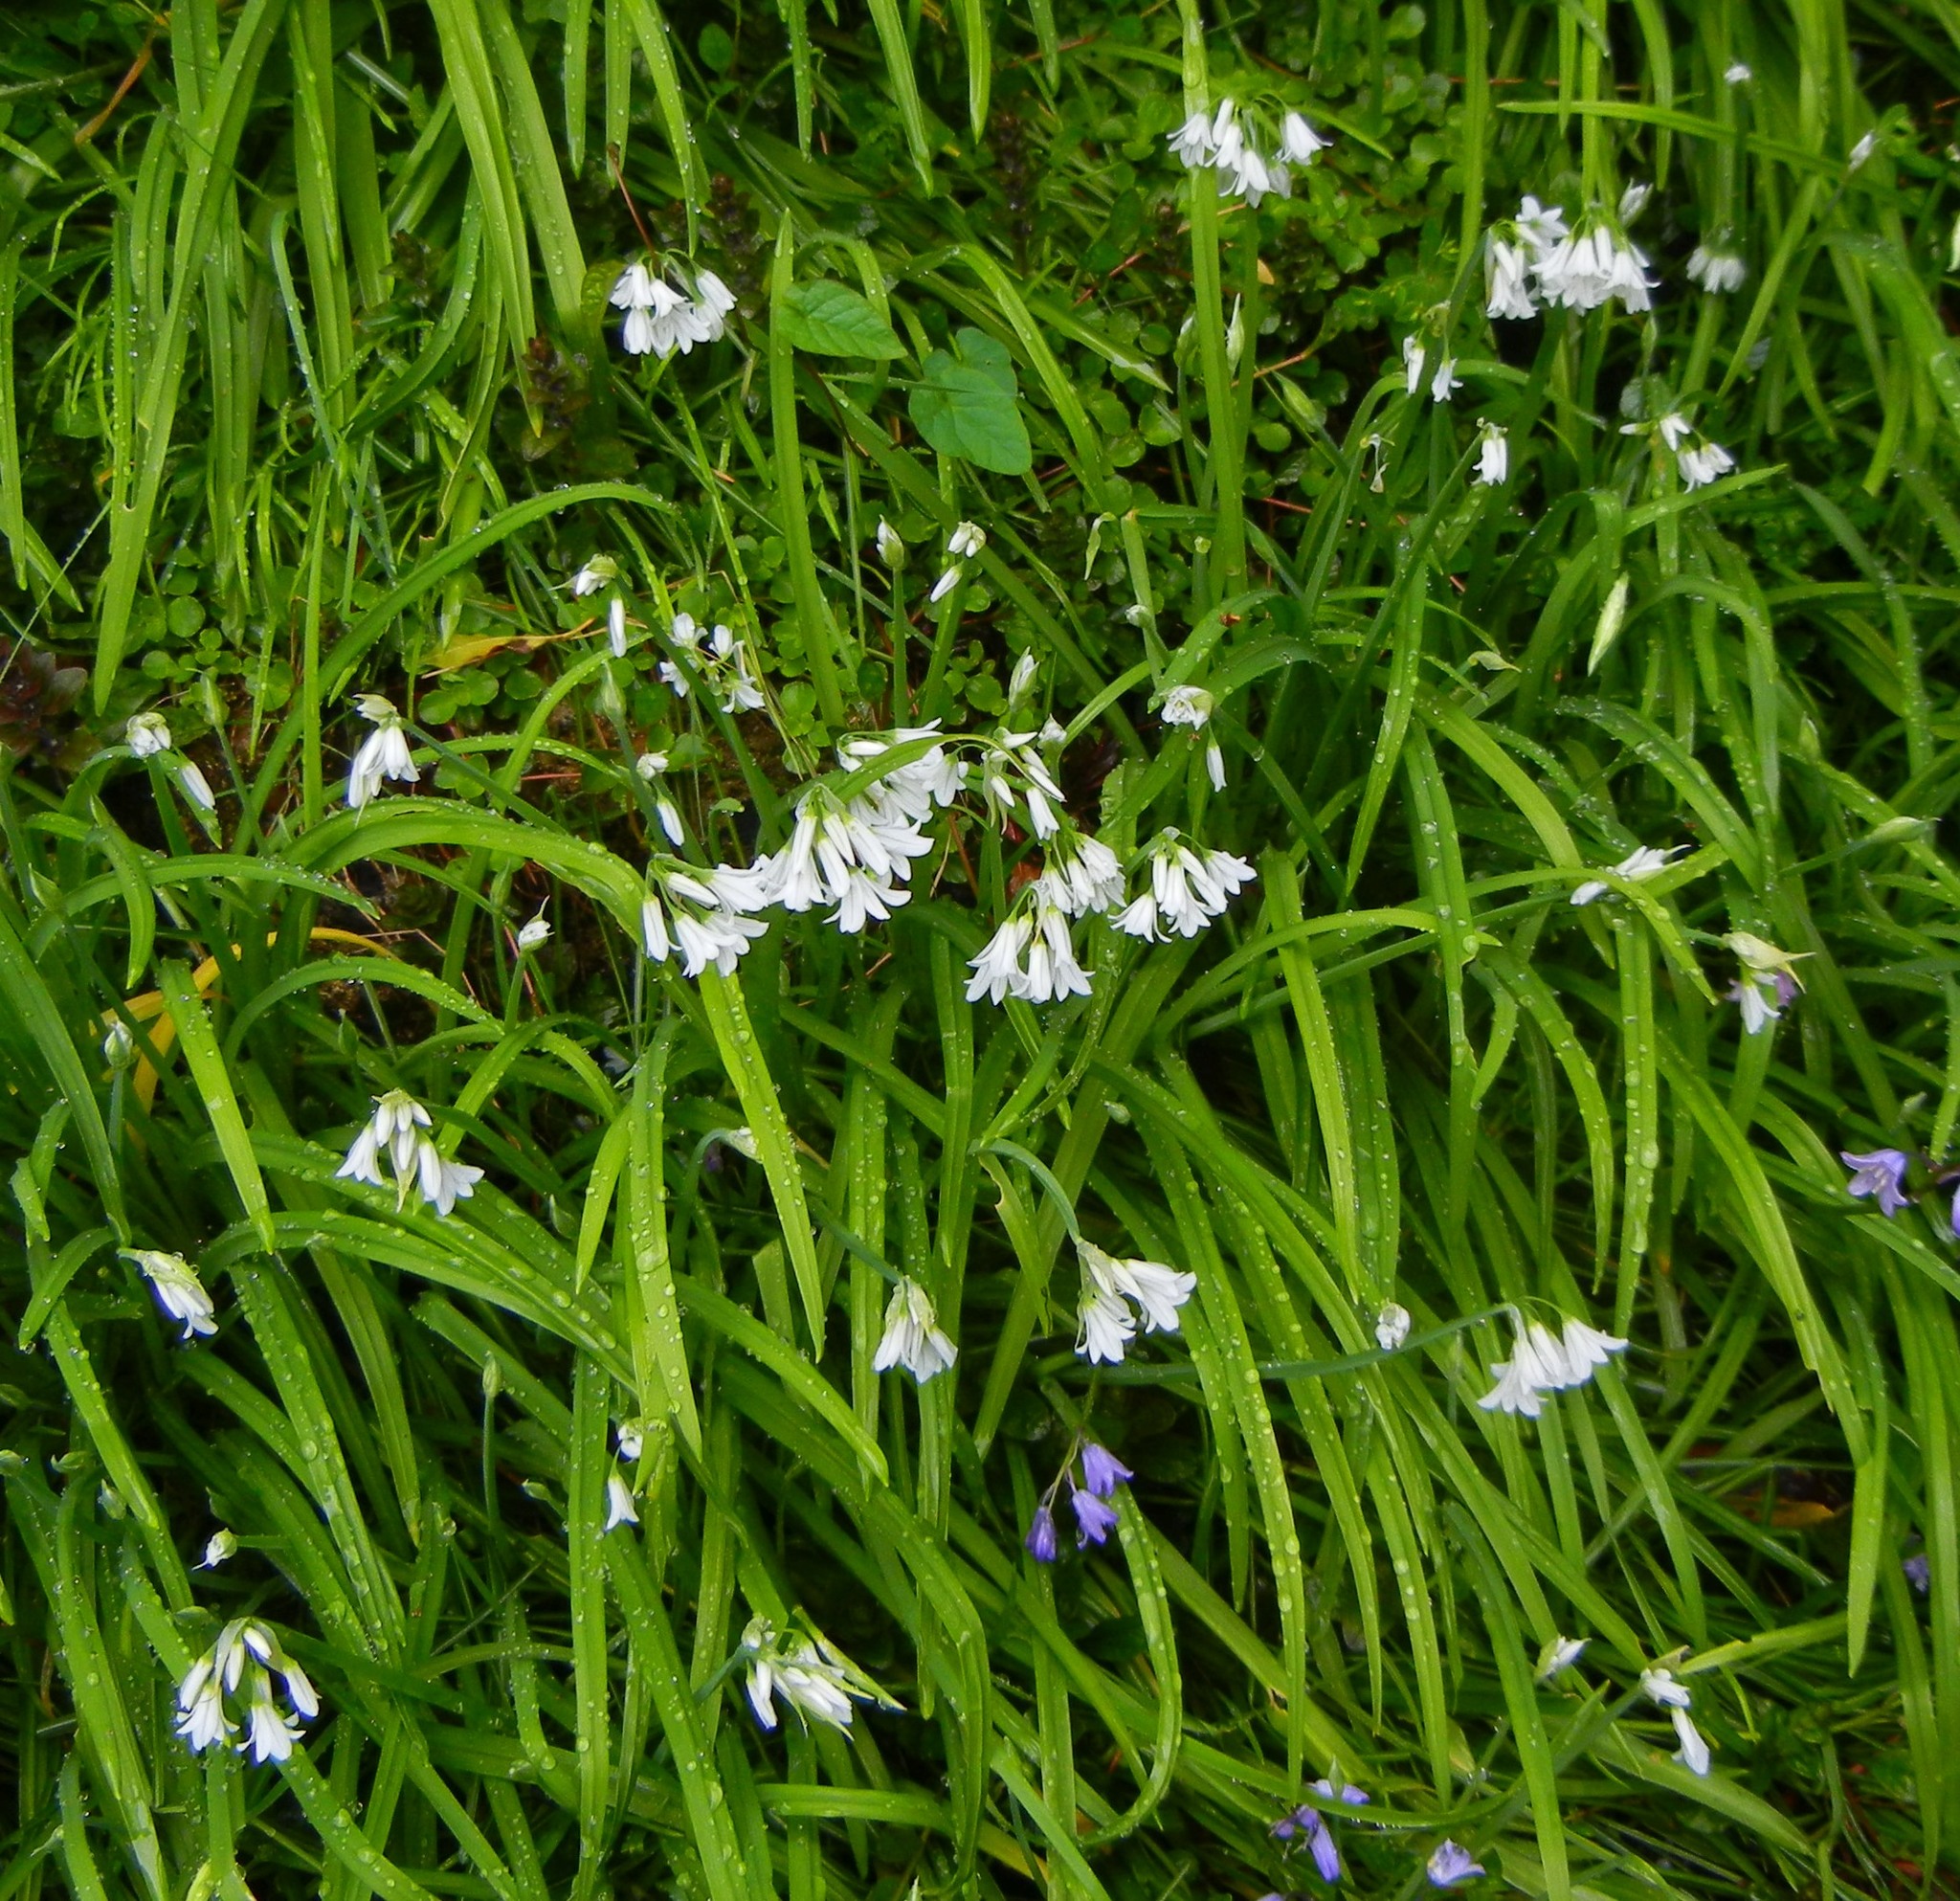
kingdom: Plantae
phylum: Tracheophyta
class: Liliopsida
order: Asparagales
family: Amaryllidaceae
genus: Allium
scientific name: Allium triquetrum
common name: Three-cornered garlic
